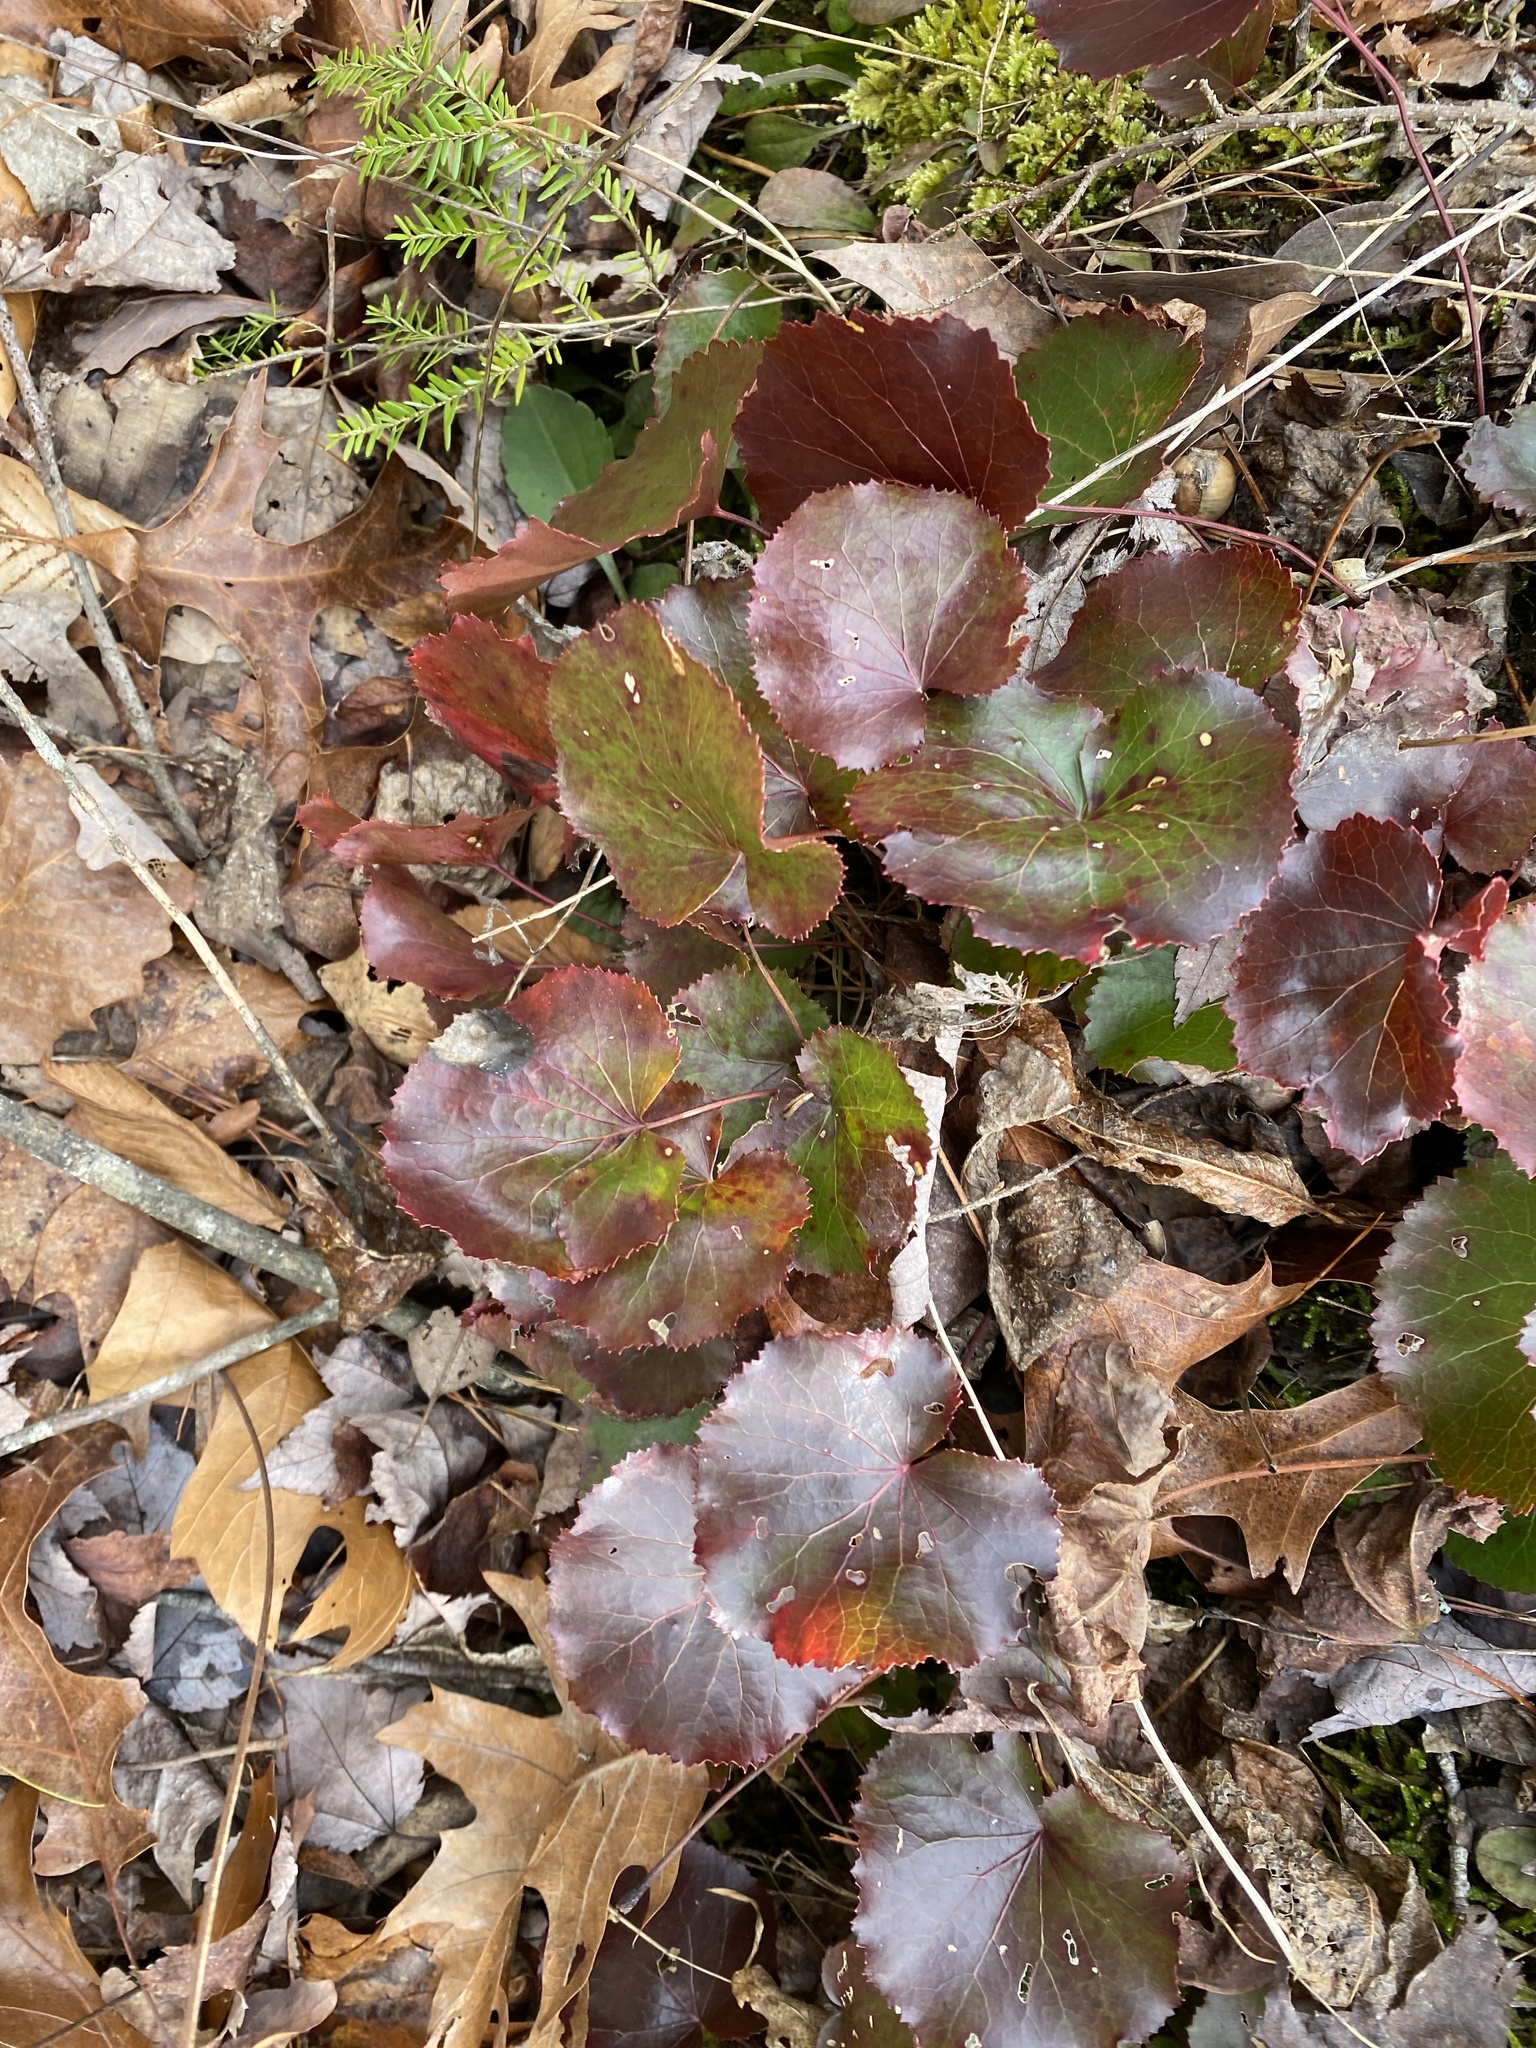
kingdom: Plantae
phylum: Tracheophyta
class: Magnoliopsida
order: Ericales
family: Diapensiaceae
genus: Galax
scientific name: Galax urceolata
